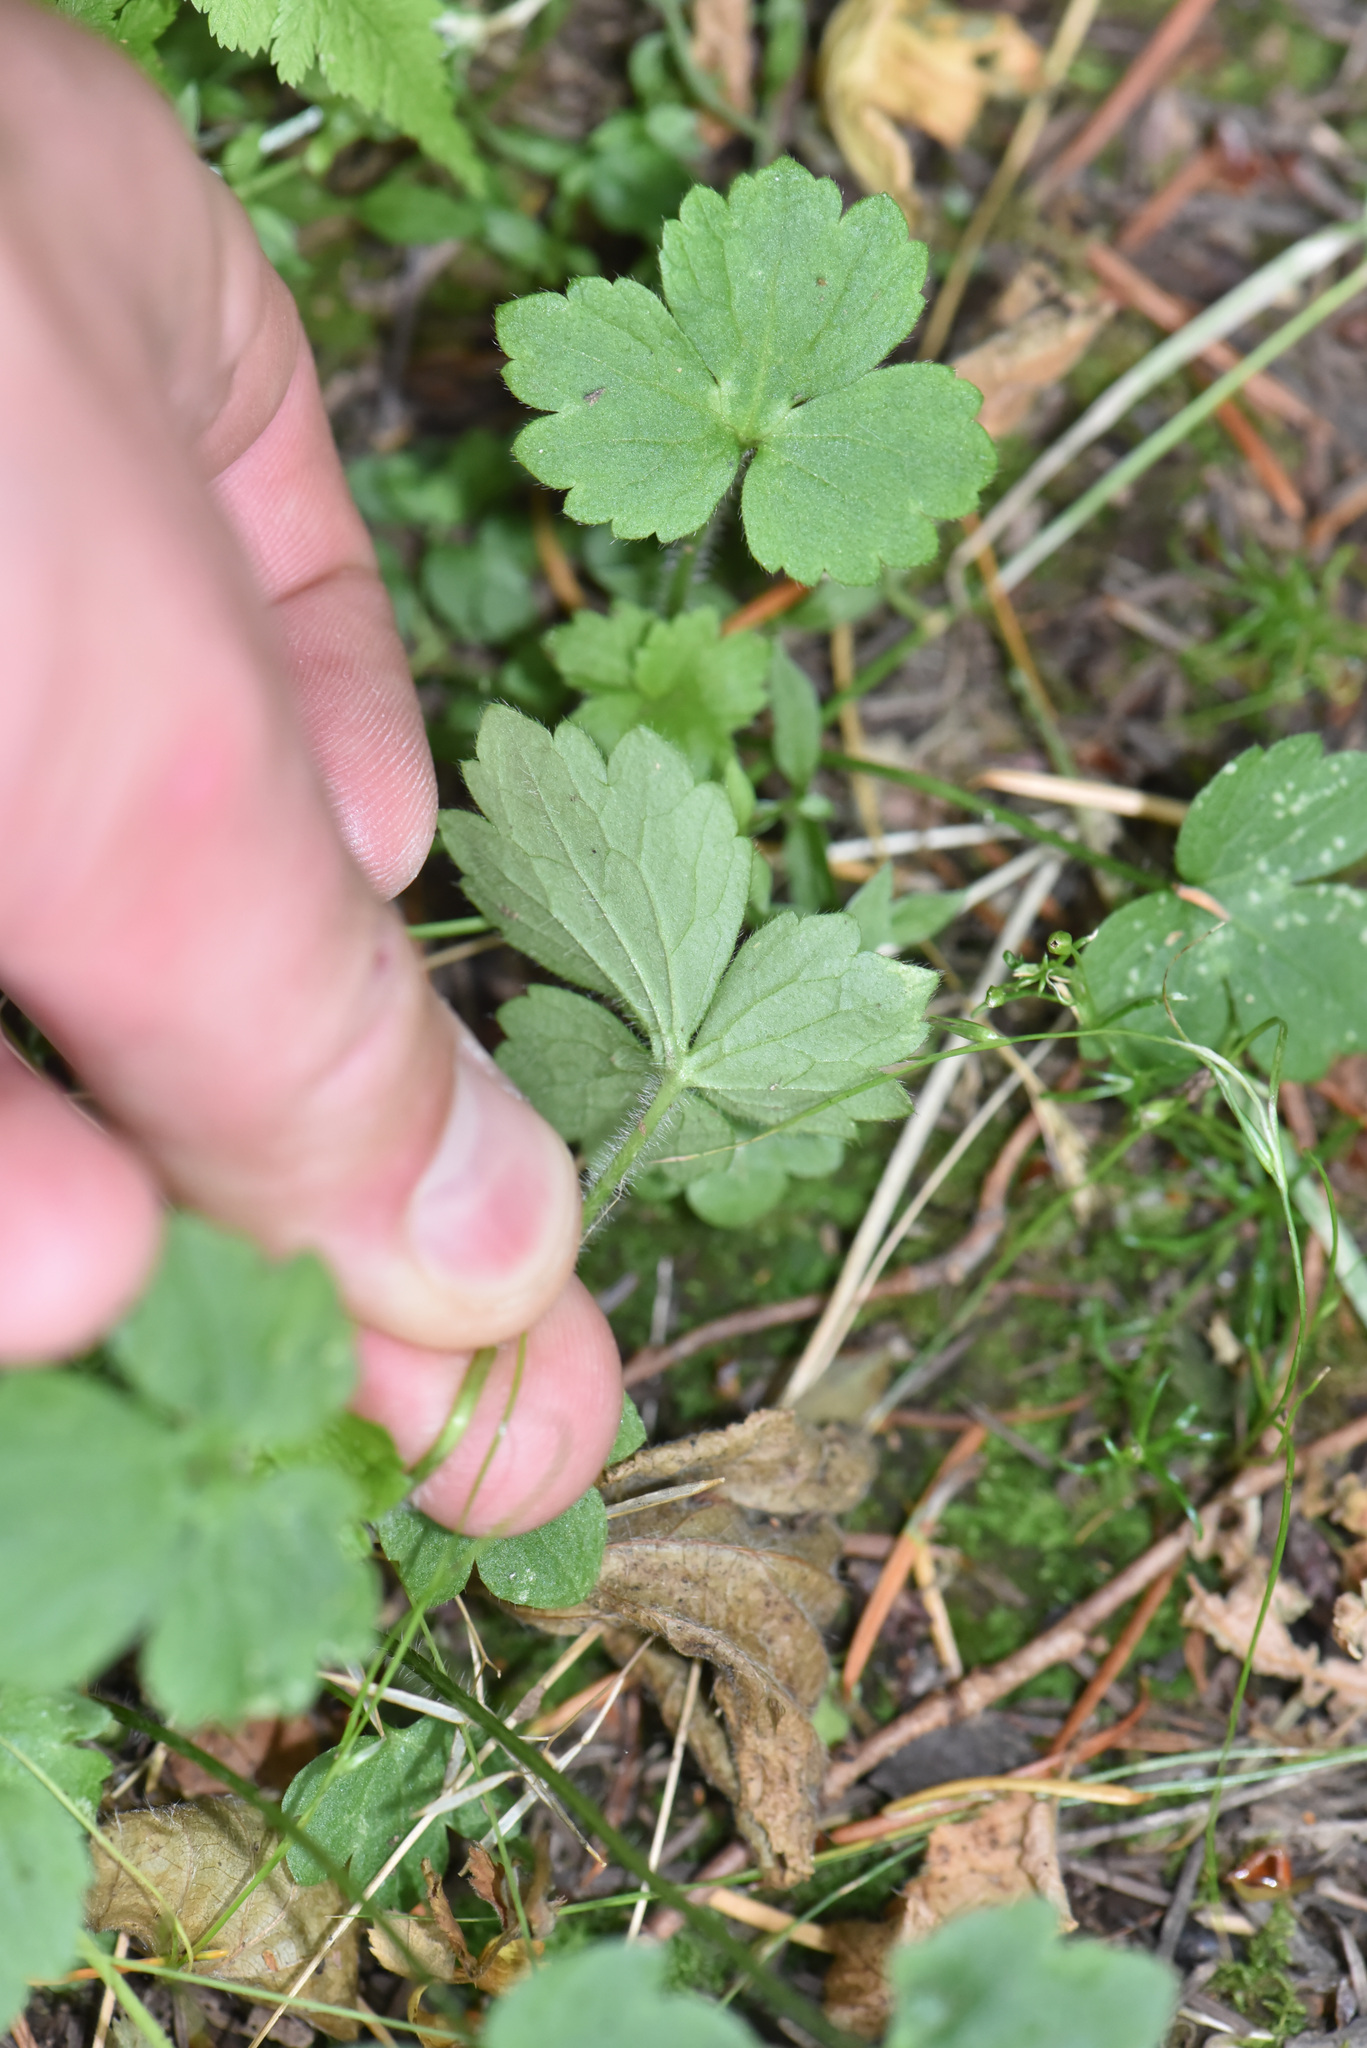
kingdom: Plantae
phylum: Tracheophyta
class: Magnoliopsida
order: Ranunculales
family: Ranunculaceae
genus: Ranunculus
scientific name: Ranunculus uncinatus
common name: Little buttercup
